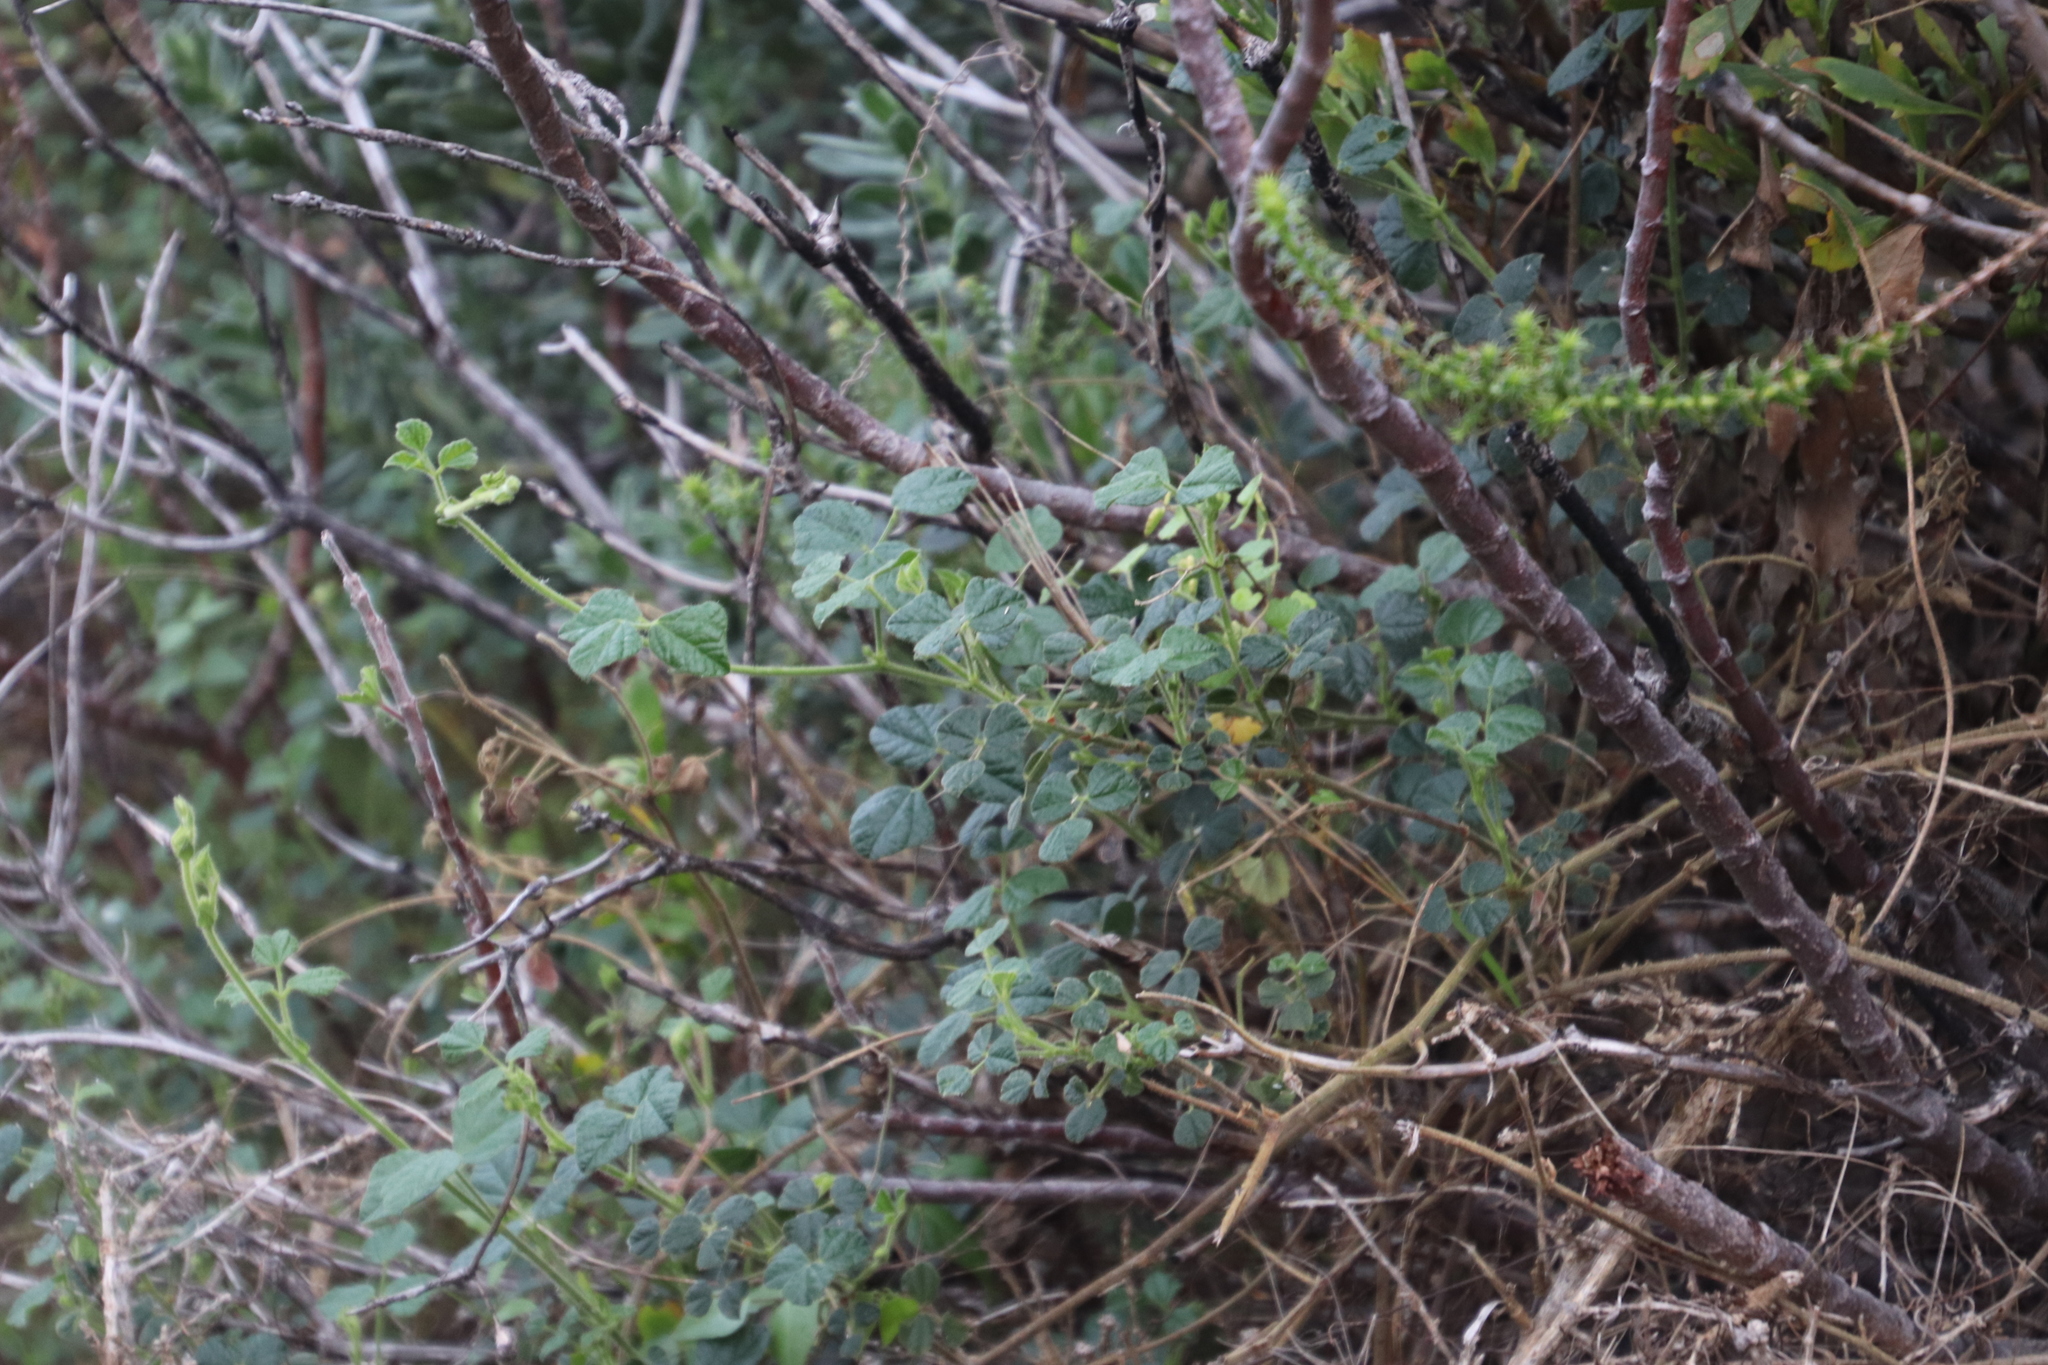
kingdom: Plantae
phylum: Tracheophyta
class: Magnoliopsida
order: Fabales
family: Fabaceae
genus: Bolusafra
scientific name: Bolusafra bituminosa
